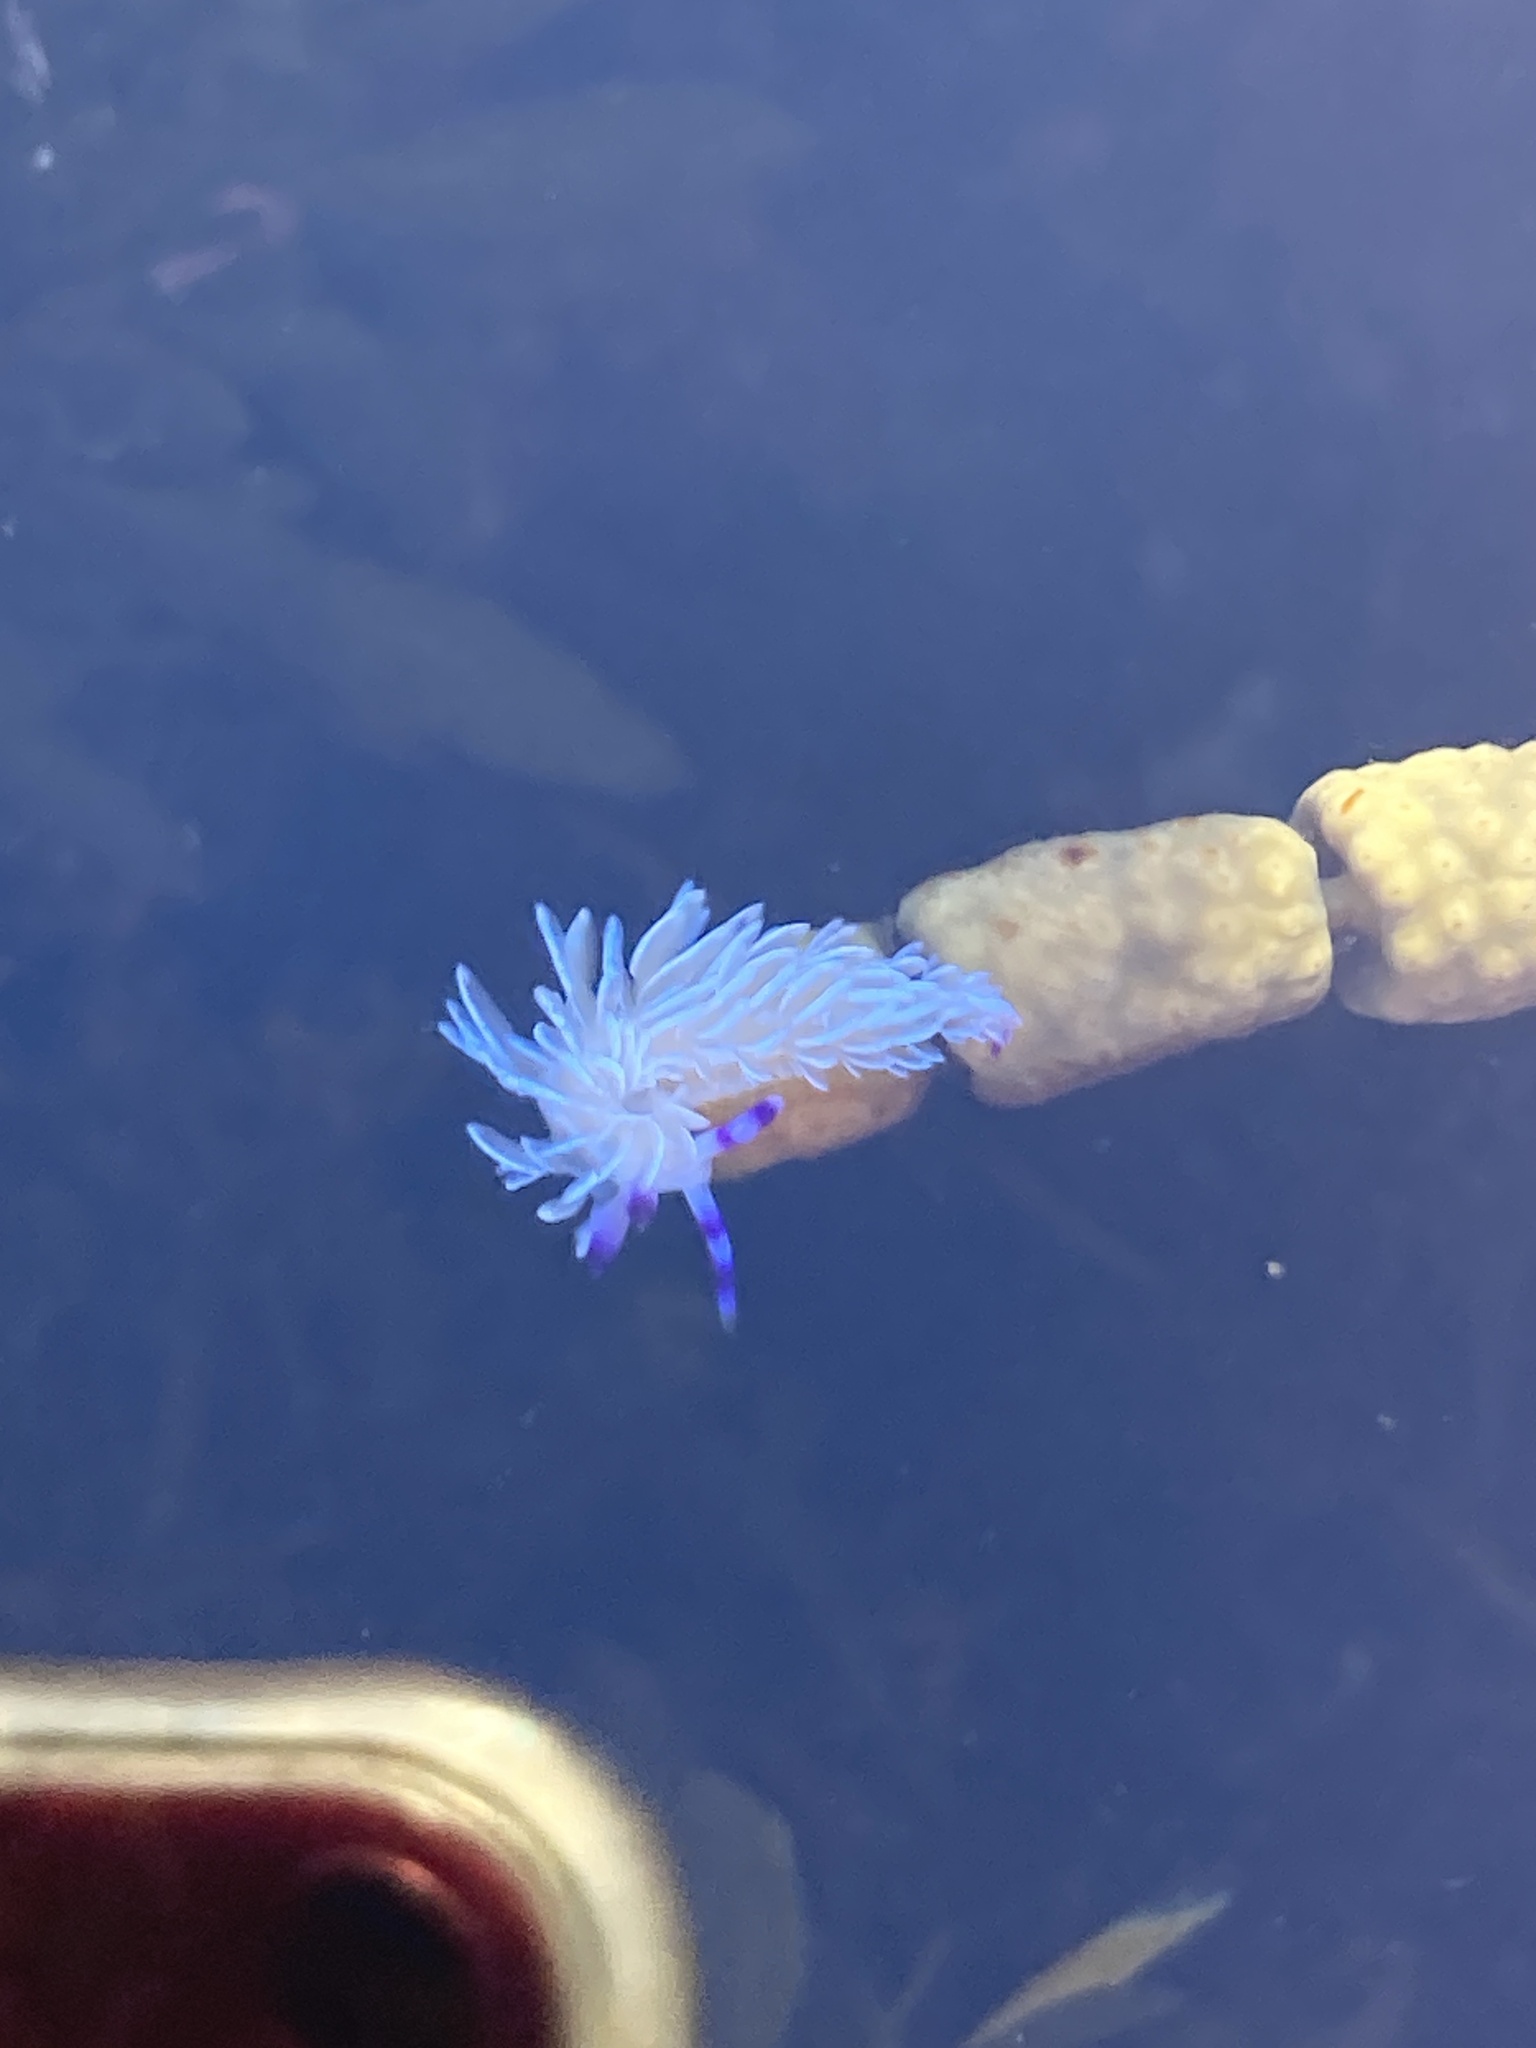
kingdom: Animalia
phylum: Mollusca
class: Gastropoda
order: Nudibranchia
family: Facelinidae
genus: Pteraeolidia
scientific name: Pteraeolidia ianthina
